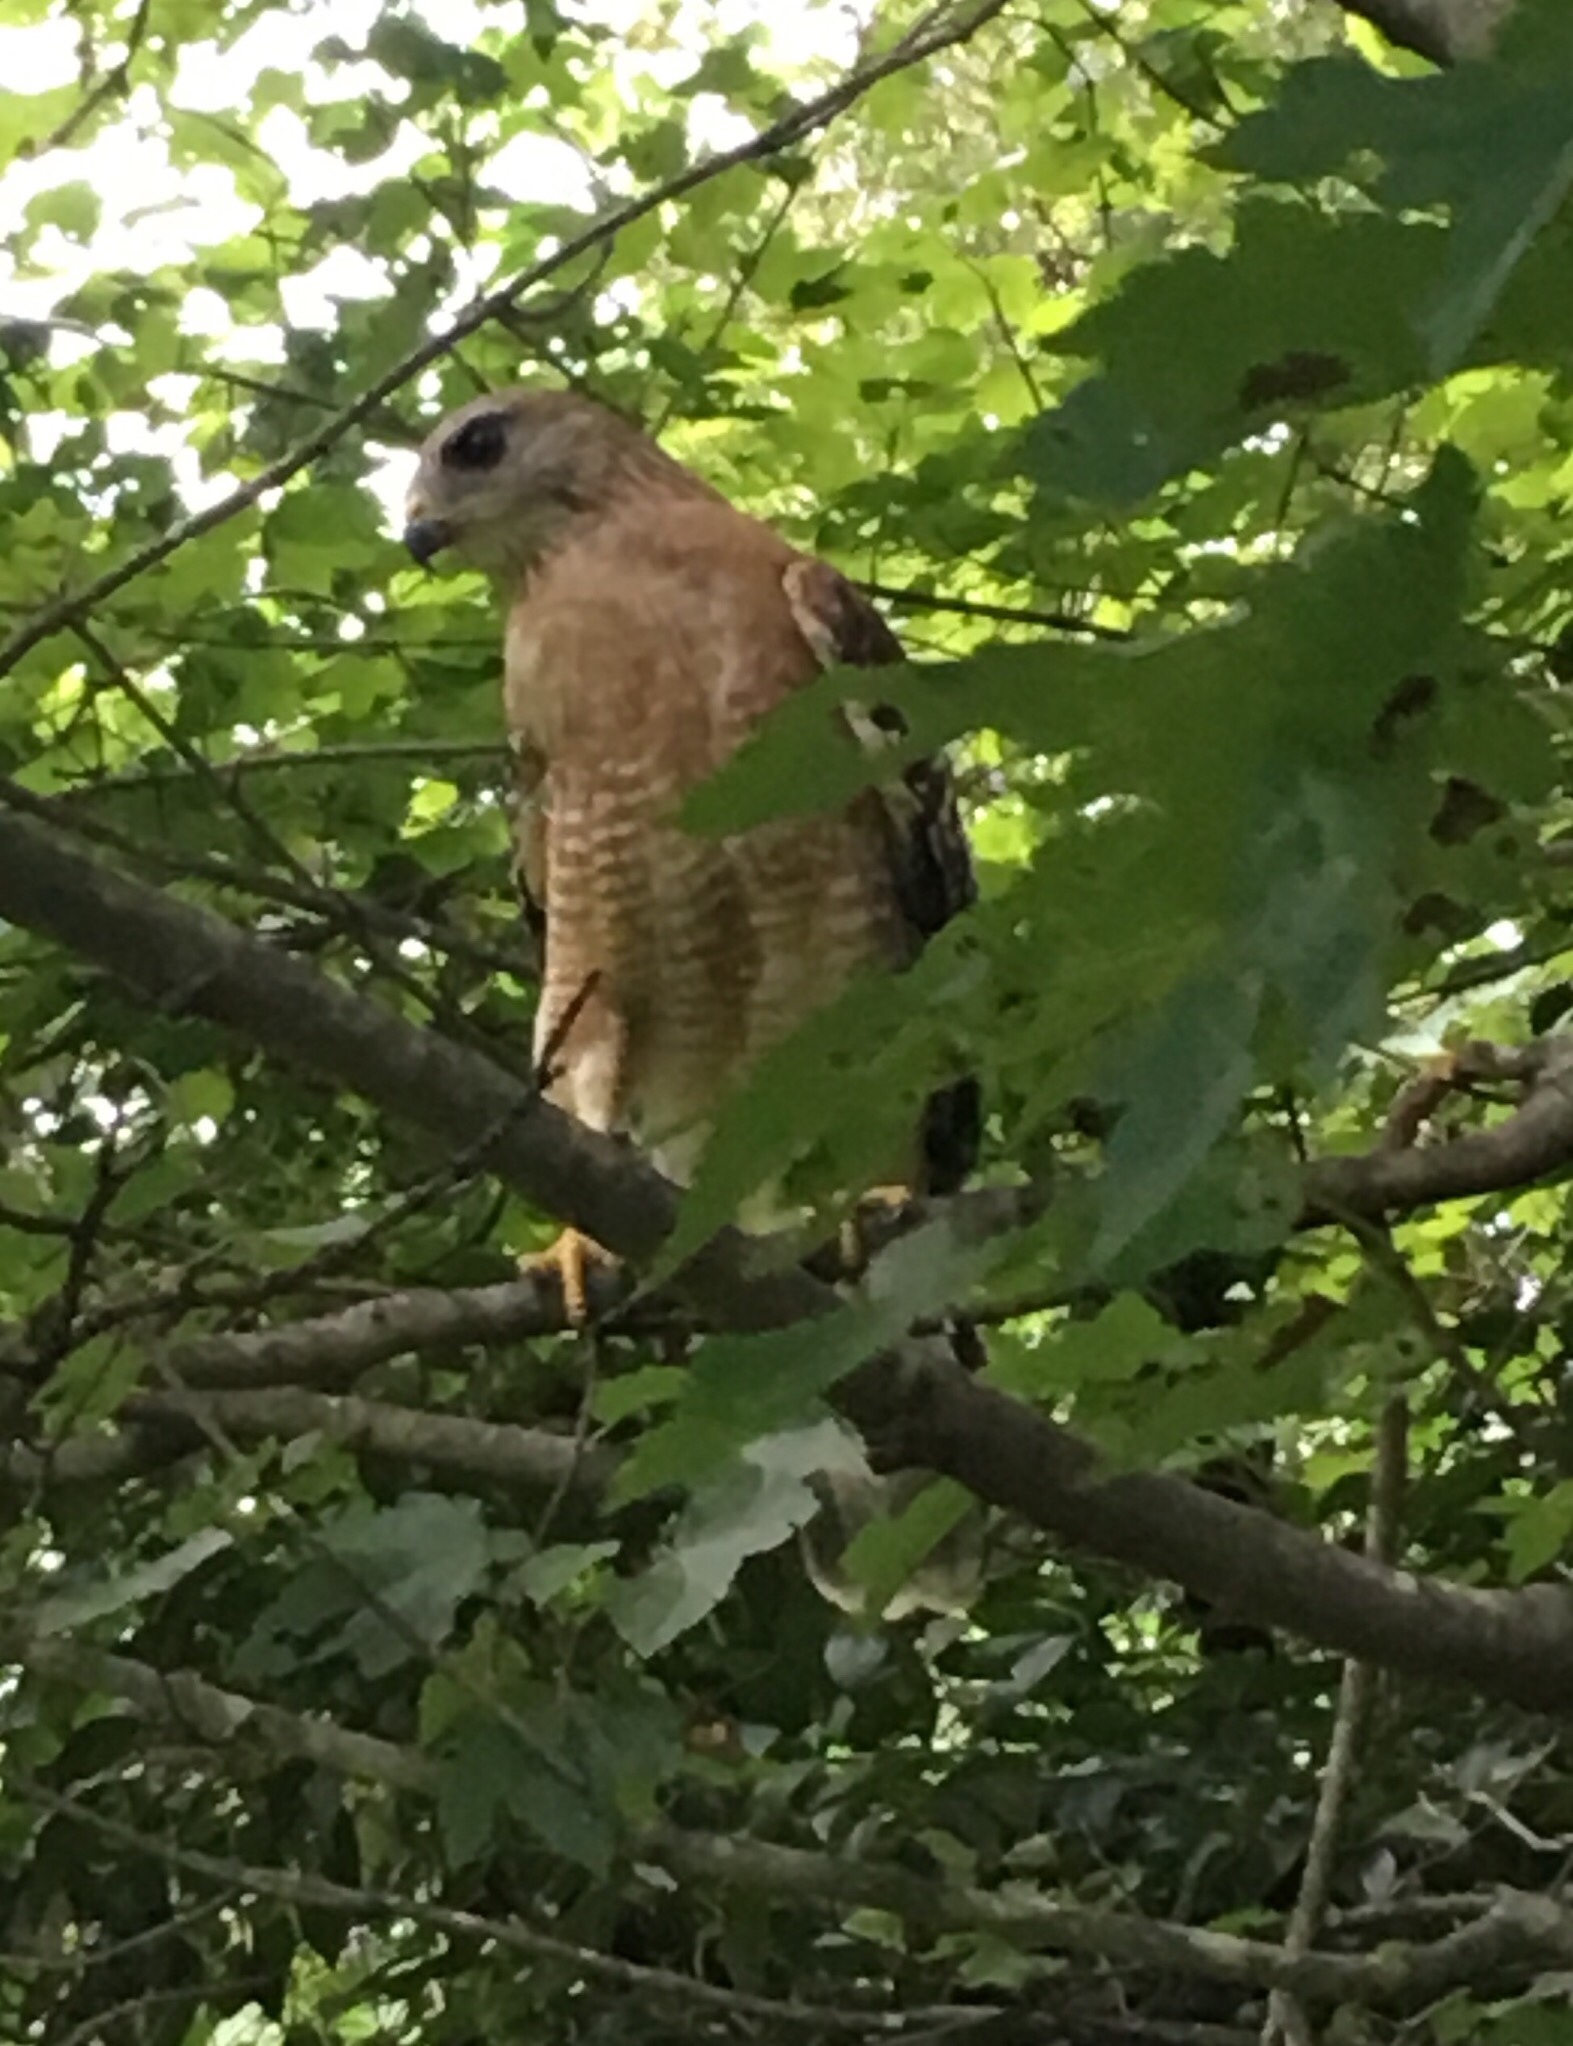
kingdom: Animalia
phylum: Chordata
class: Aves
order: Accipitriformes
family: Accipitridae
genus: Buteo
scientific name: Buteo lineatus
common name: Red-shouldered hawk
